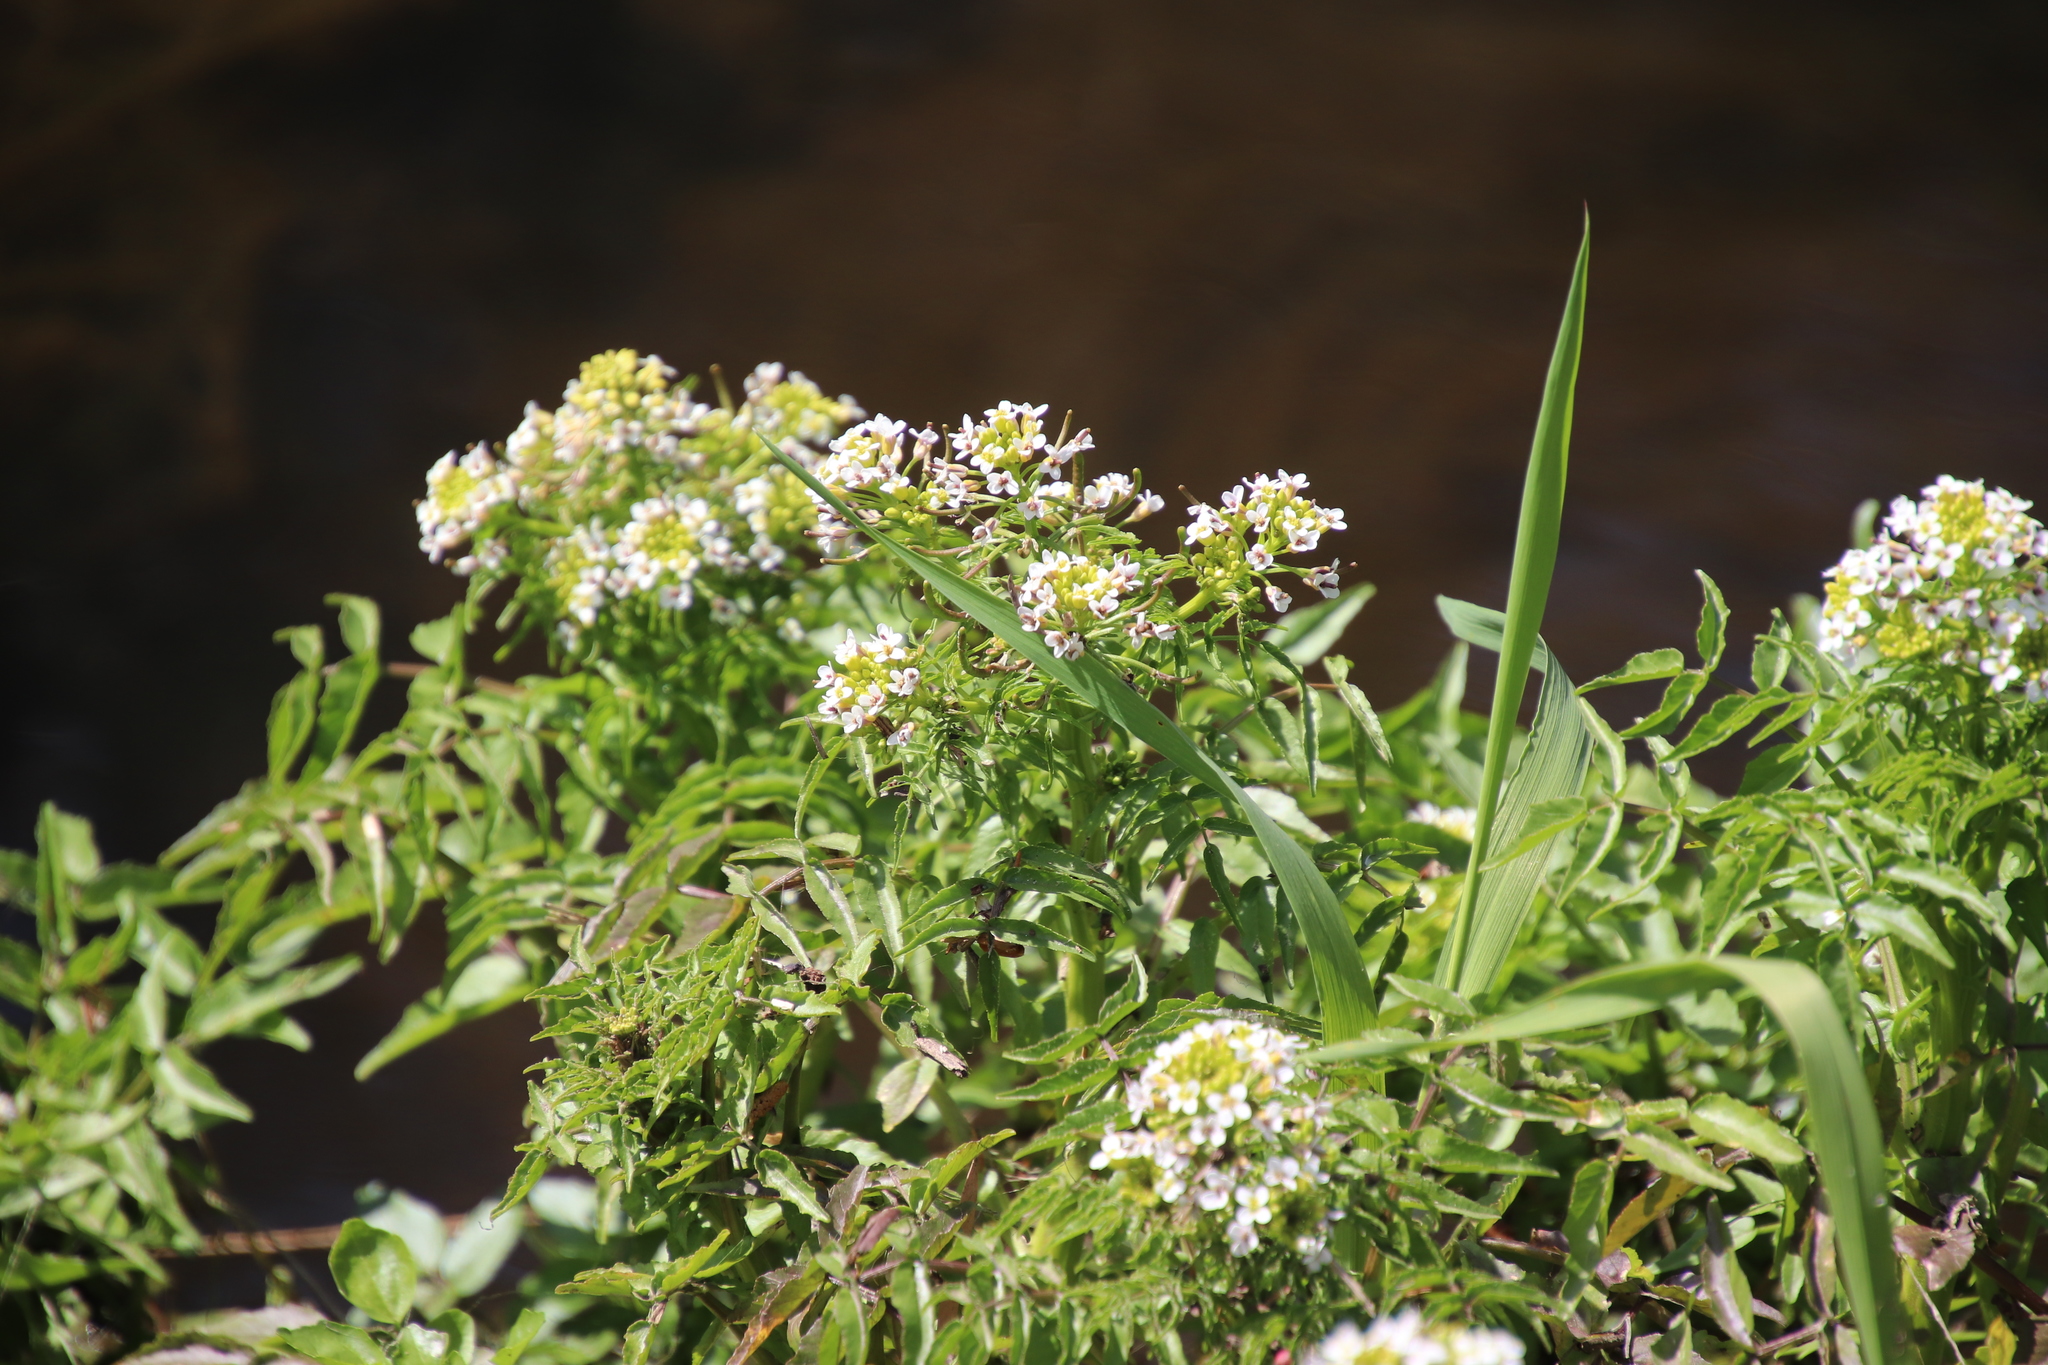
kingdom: Plantae
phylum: Tracheophyta
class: Magnoliopsida
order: Brassicales
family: Brassicaceae
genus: Nasturtium
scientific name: Nasturtium officinale
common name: Watercress
